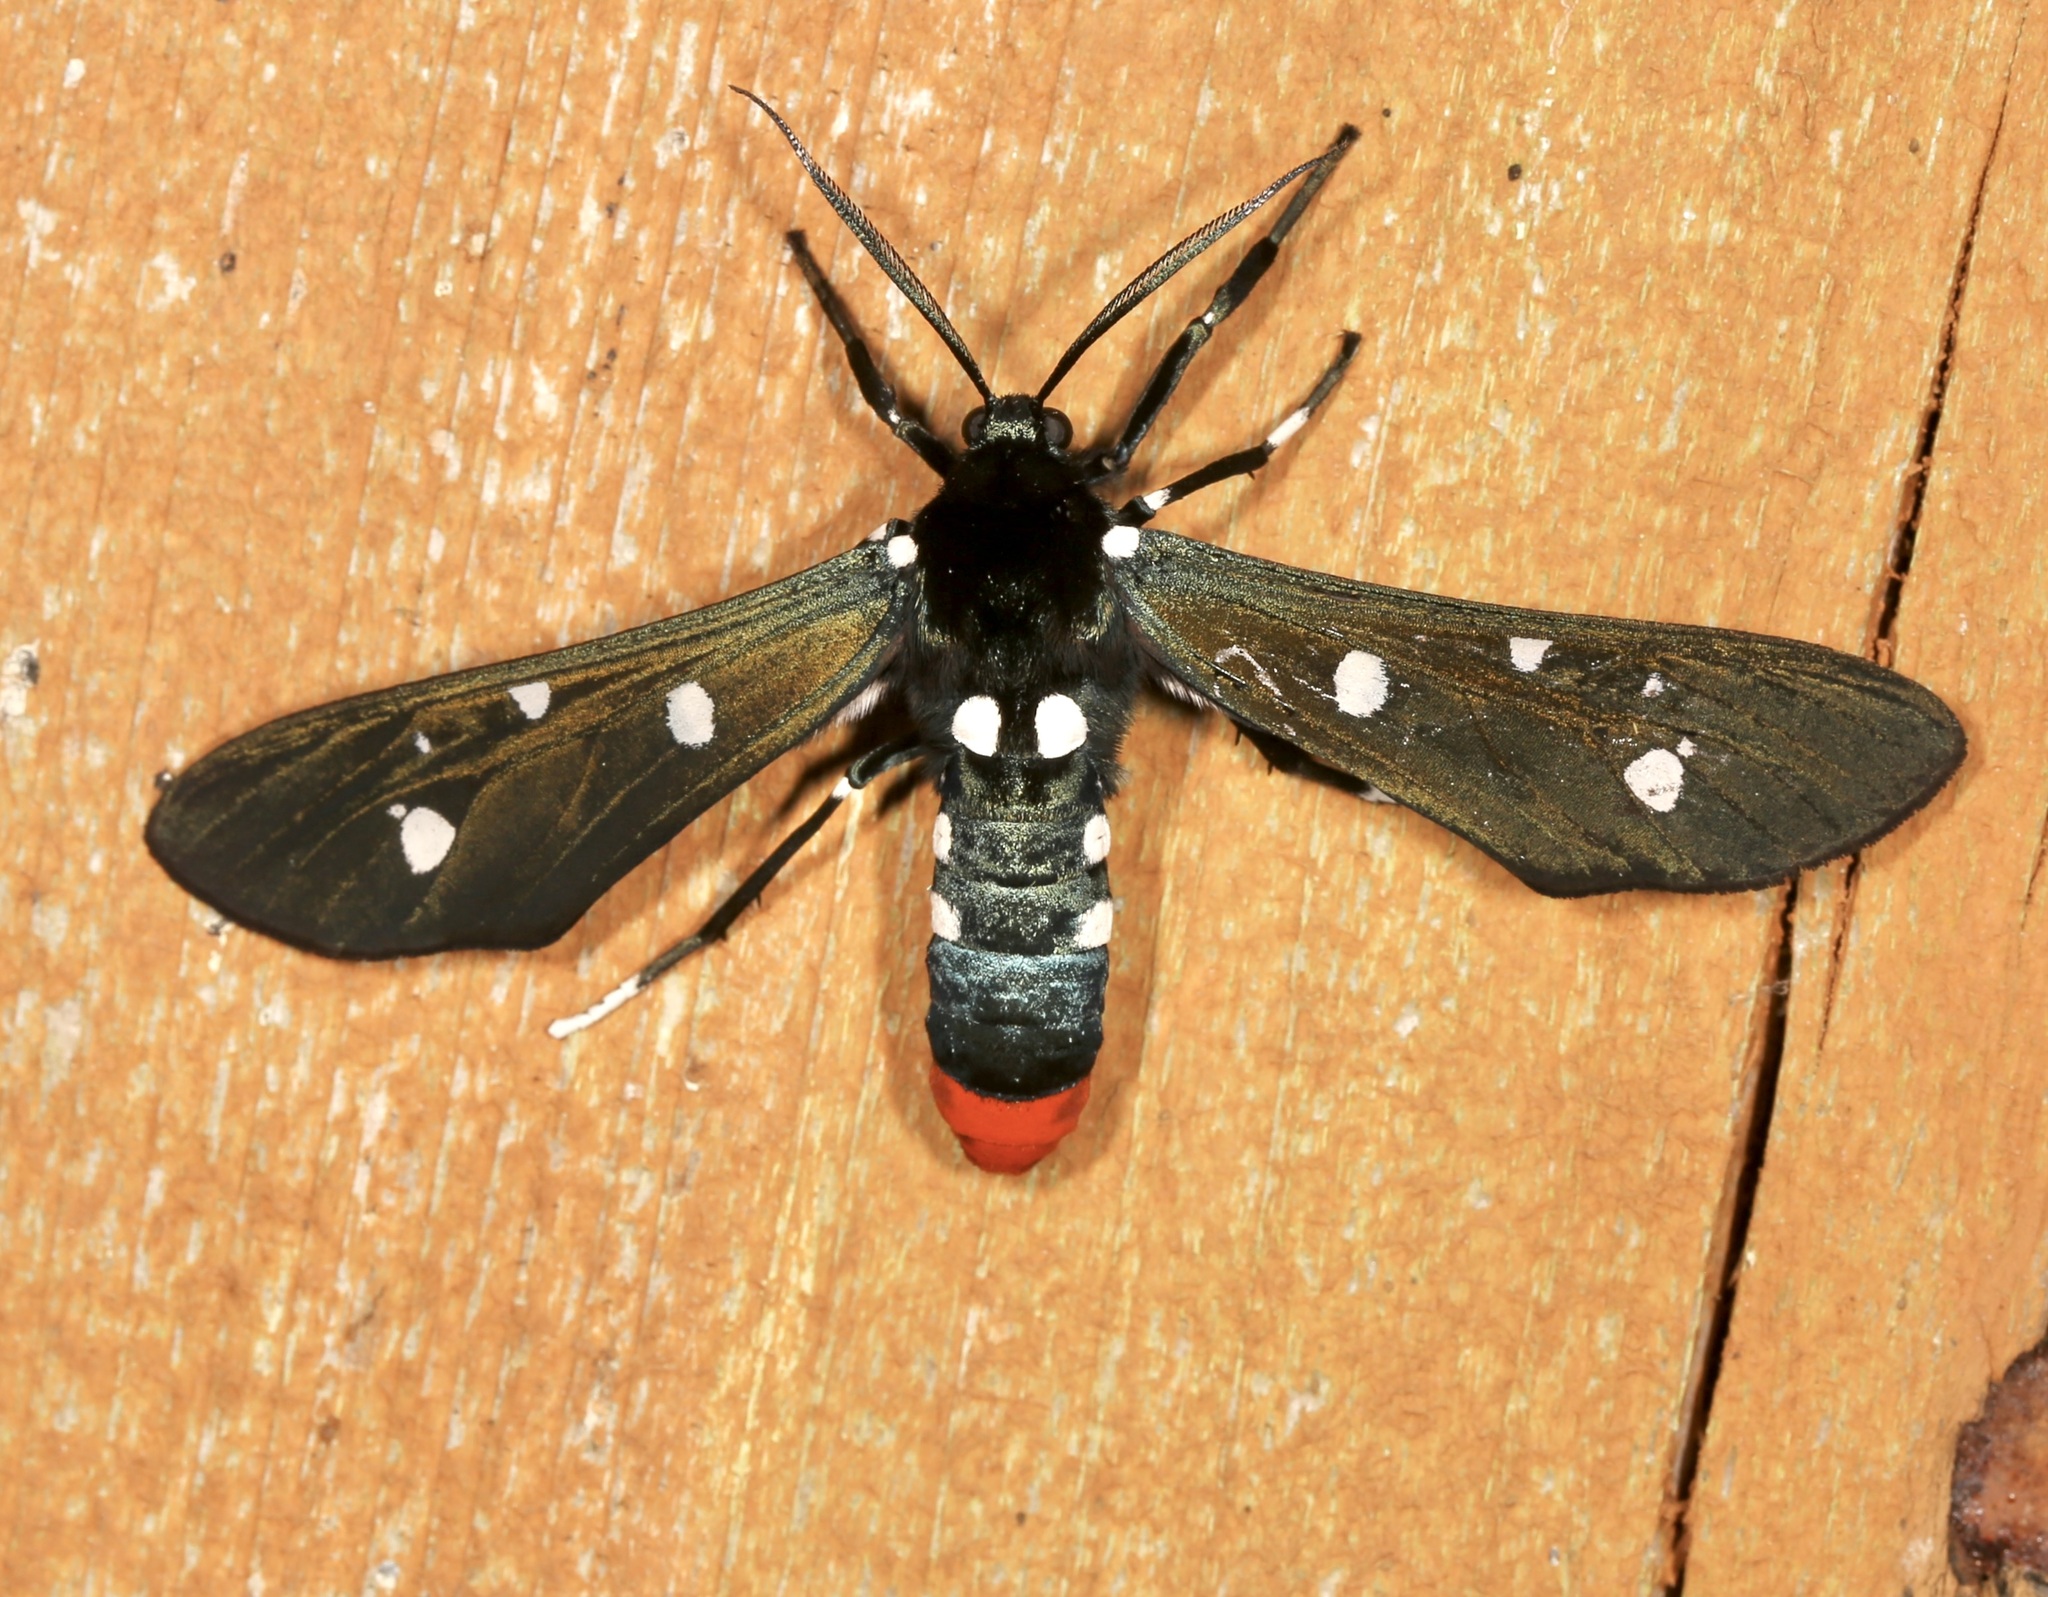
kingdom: Animalia
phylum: Arthropoda
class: Insecta
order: Lepidoptera
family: Erebidae
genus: Syntomeida
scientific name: Syntomeida epilais
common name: Polka-dot wasp moth
